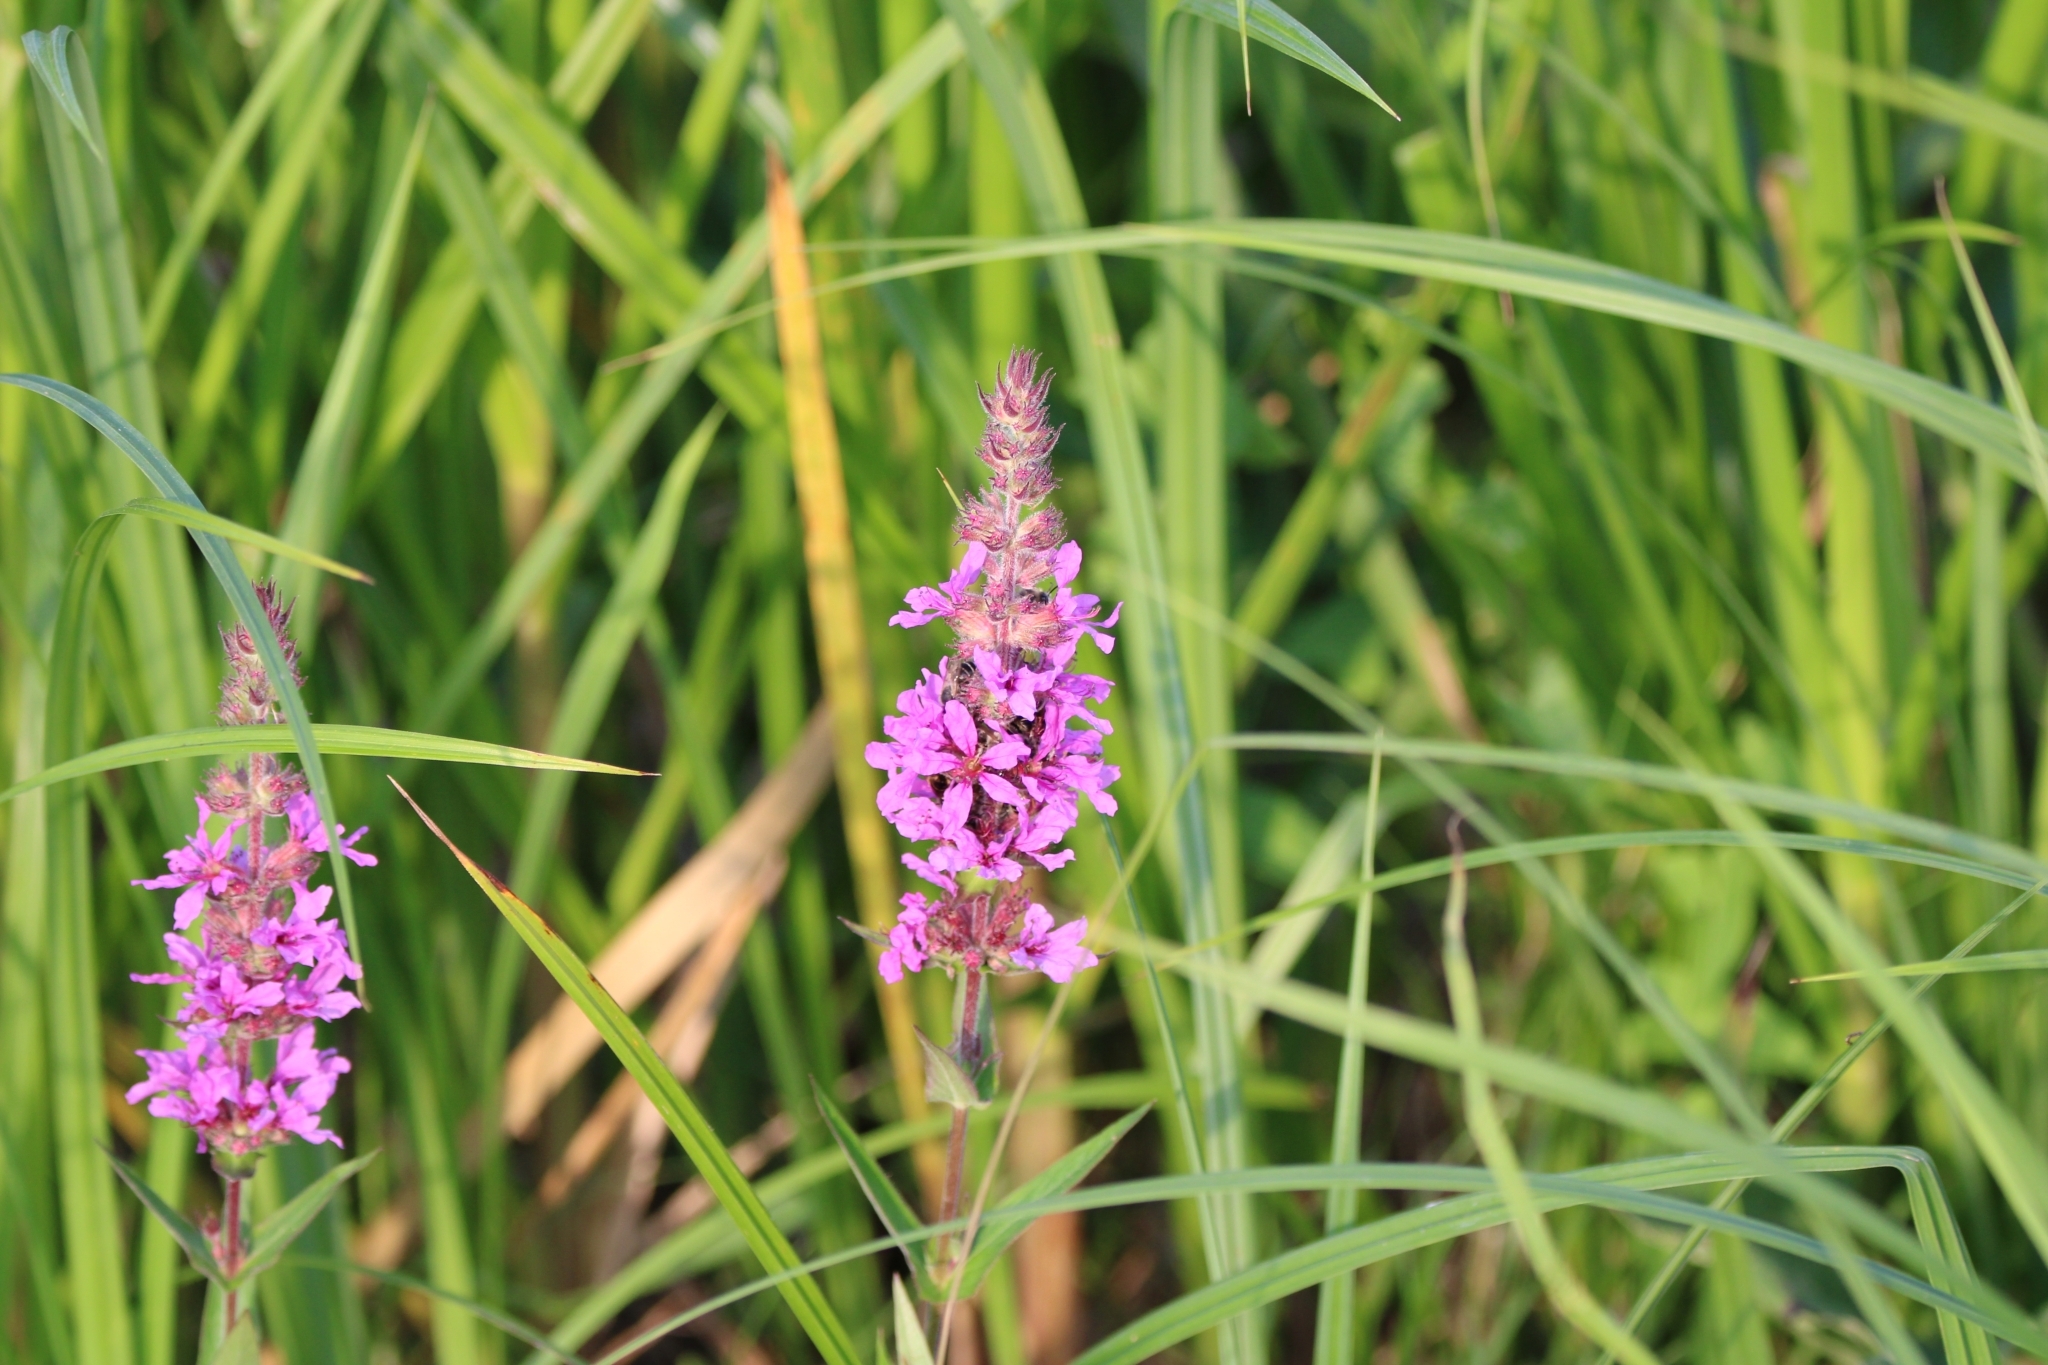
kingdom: Plantae
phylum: Tracheophyta
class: Magnoliopsida
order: Myrtales
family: Lythraceae
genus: Lythrum
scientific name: Lythrum salicaria
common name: Purple loosestrife
